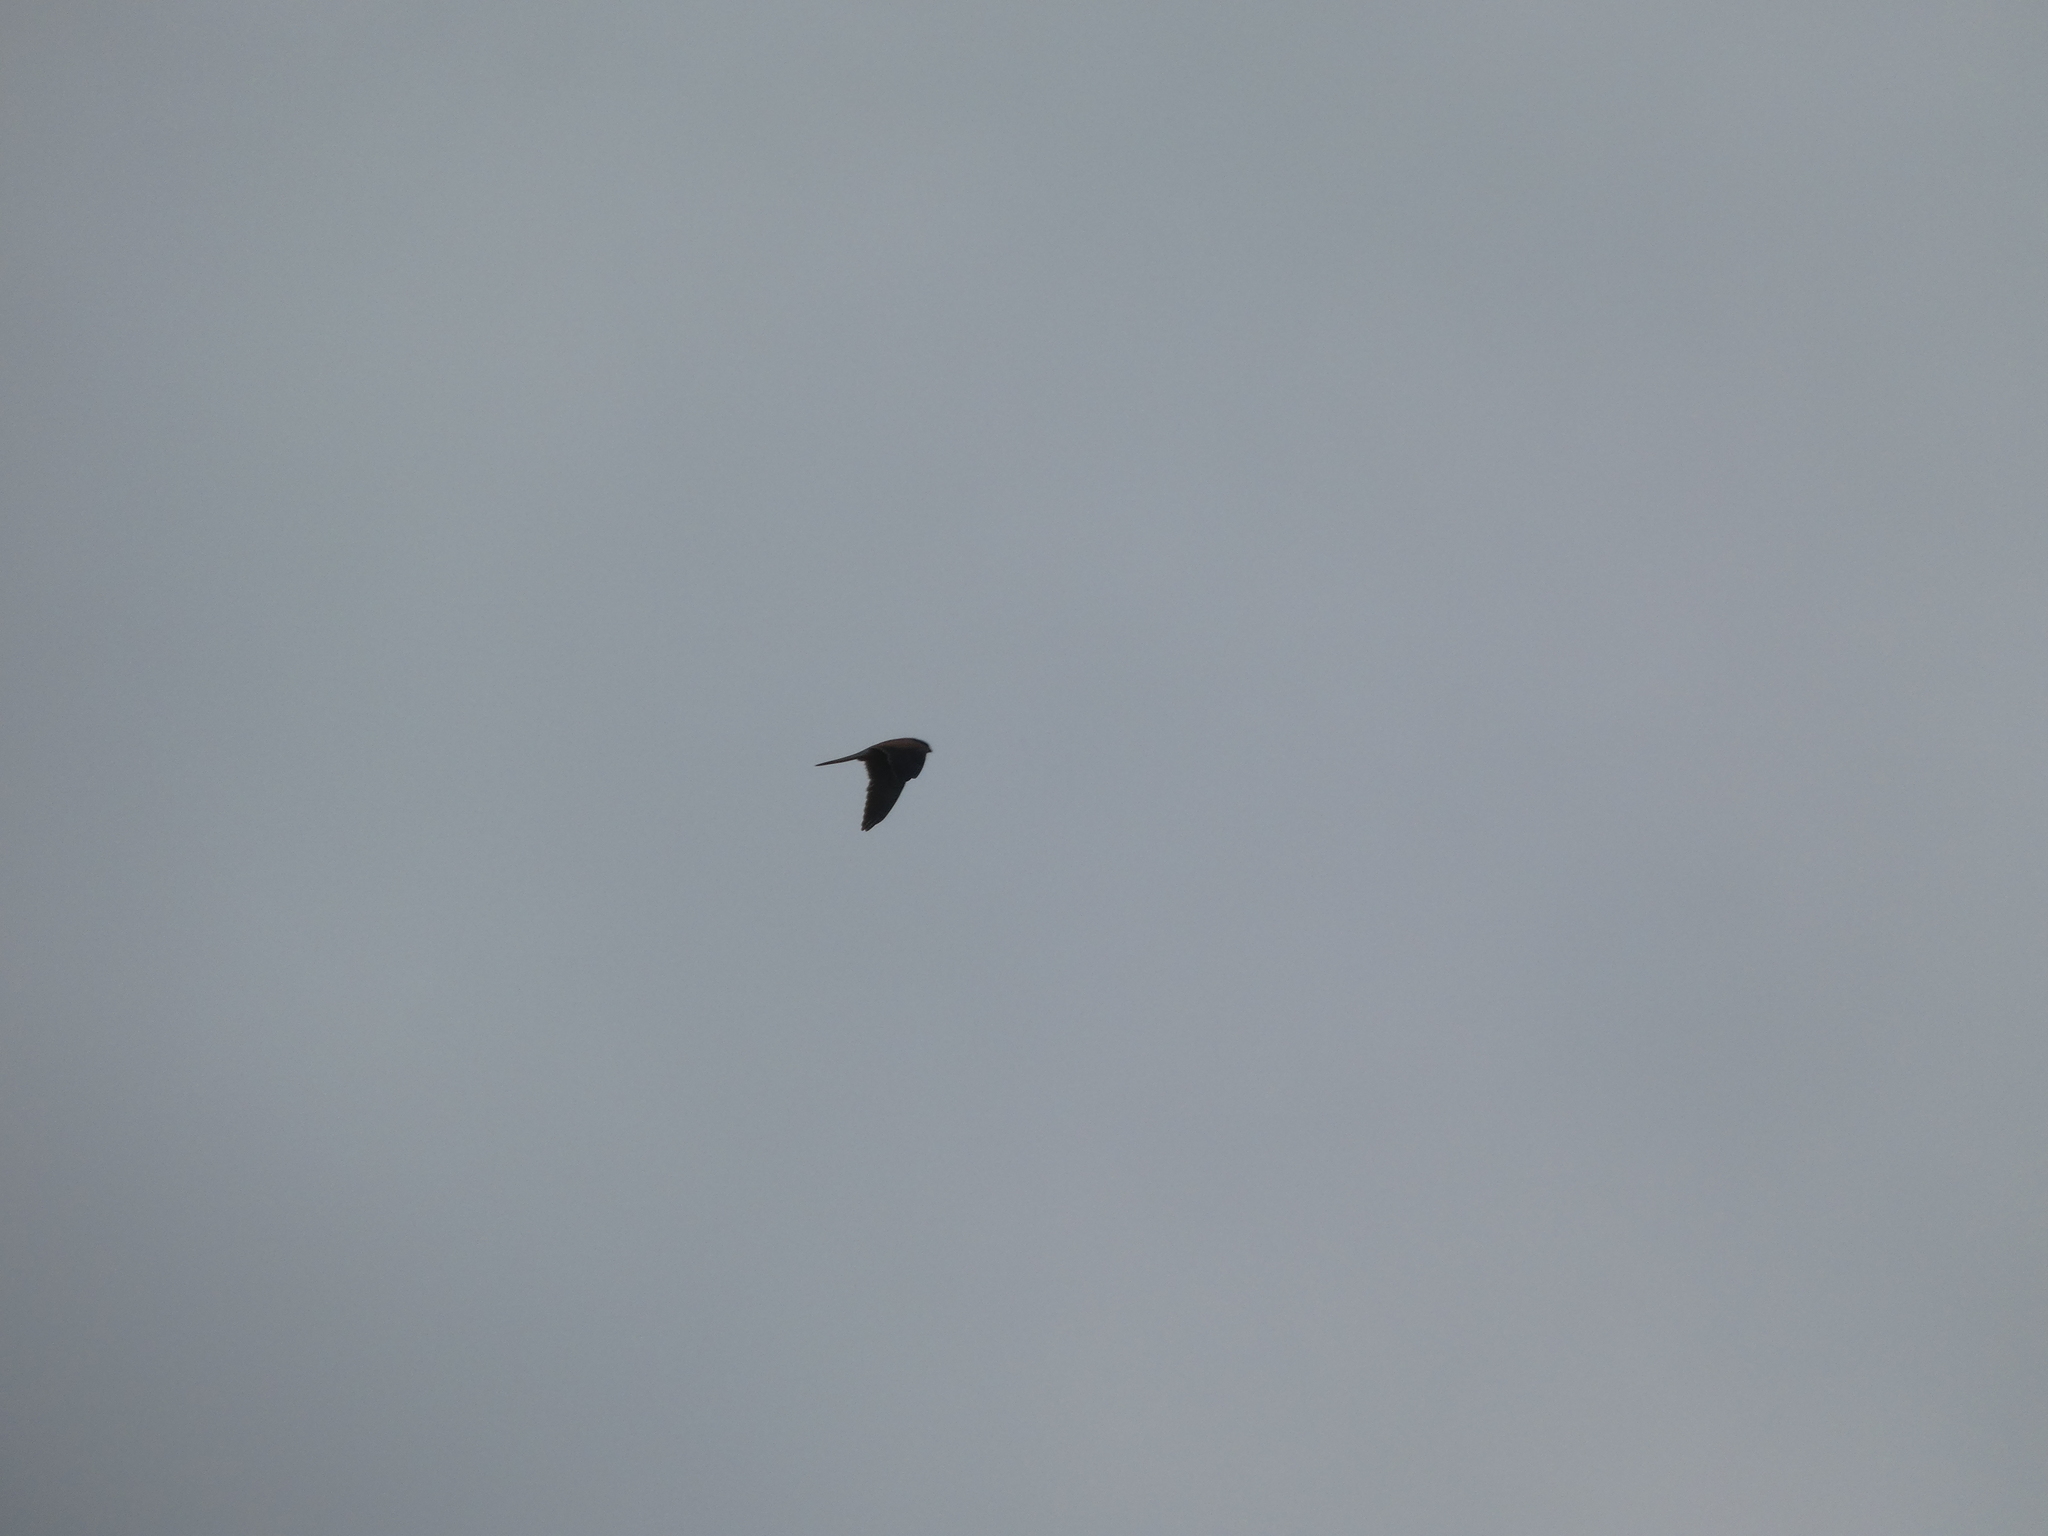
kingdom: Animalia
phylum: Chordata
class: Aves
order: Falconiformes
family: Falconidae
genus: Falco
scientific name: Falco tinnunculus
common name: Common kestrel
